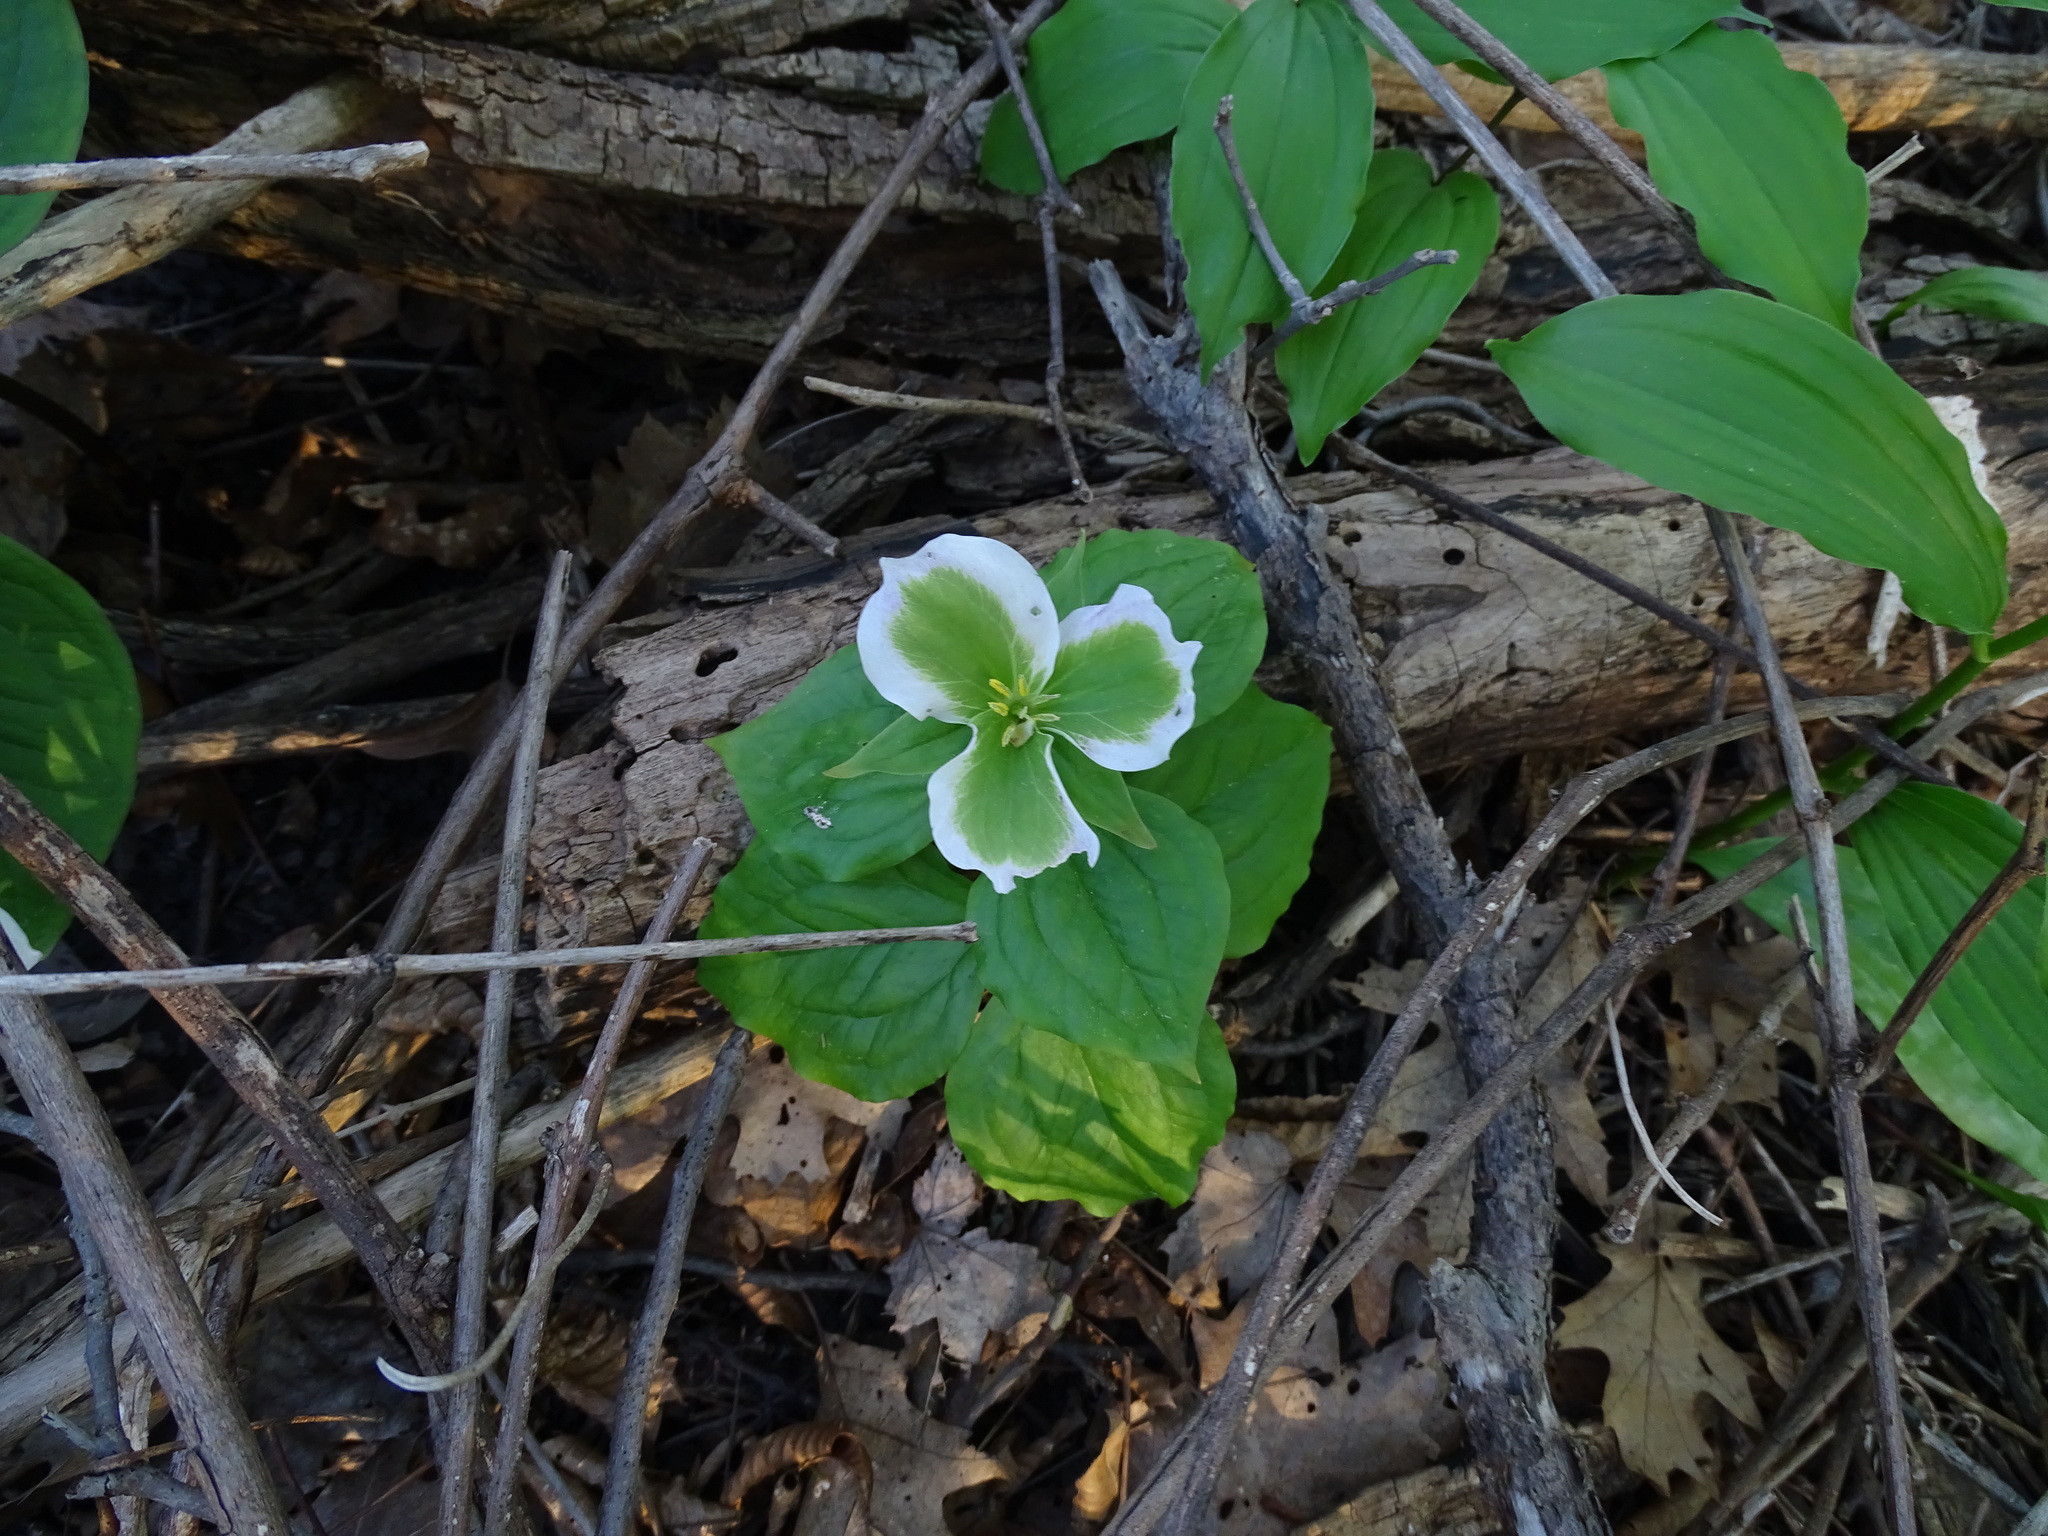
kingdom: Plantae
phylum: Tracheophyta
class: Liliopsida
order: Liliales
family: Melanthiaceae
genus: Trillium
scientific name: Trillium grandiflorum
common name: Great white trillium
